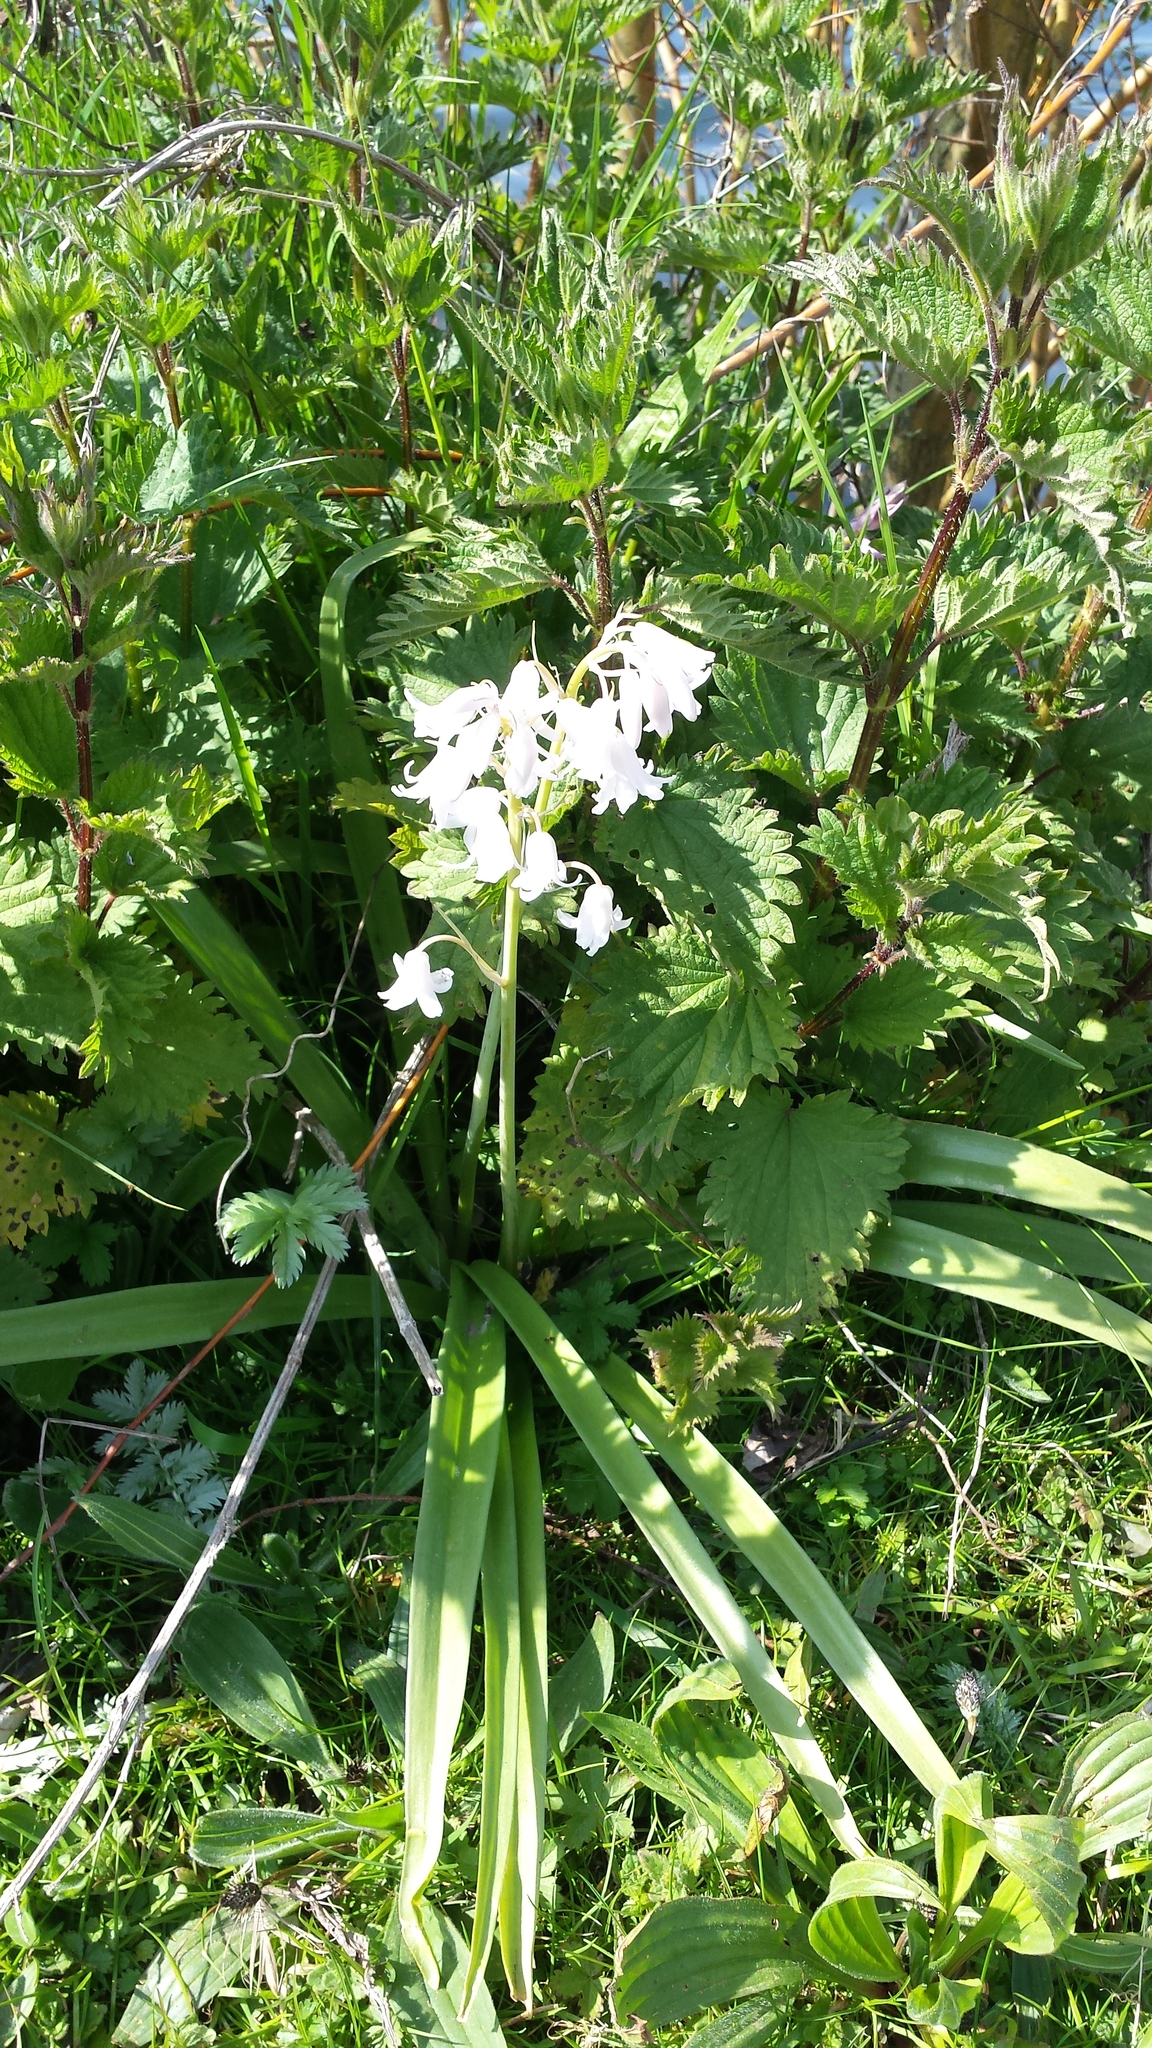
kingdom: Plantae
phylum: Tracheophyta
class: Liliopsida
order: Asparagales
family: Asparagaceae
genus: Hyacinthoides
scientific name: Hyacinthoides massartiana
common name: Hyacinthoides
